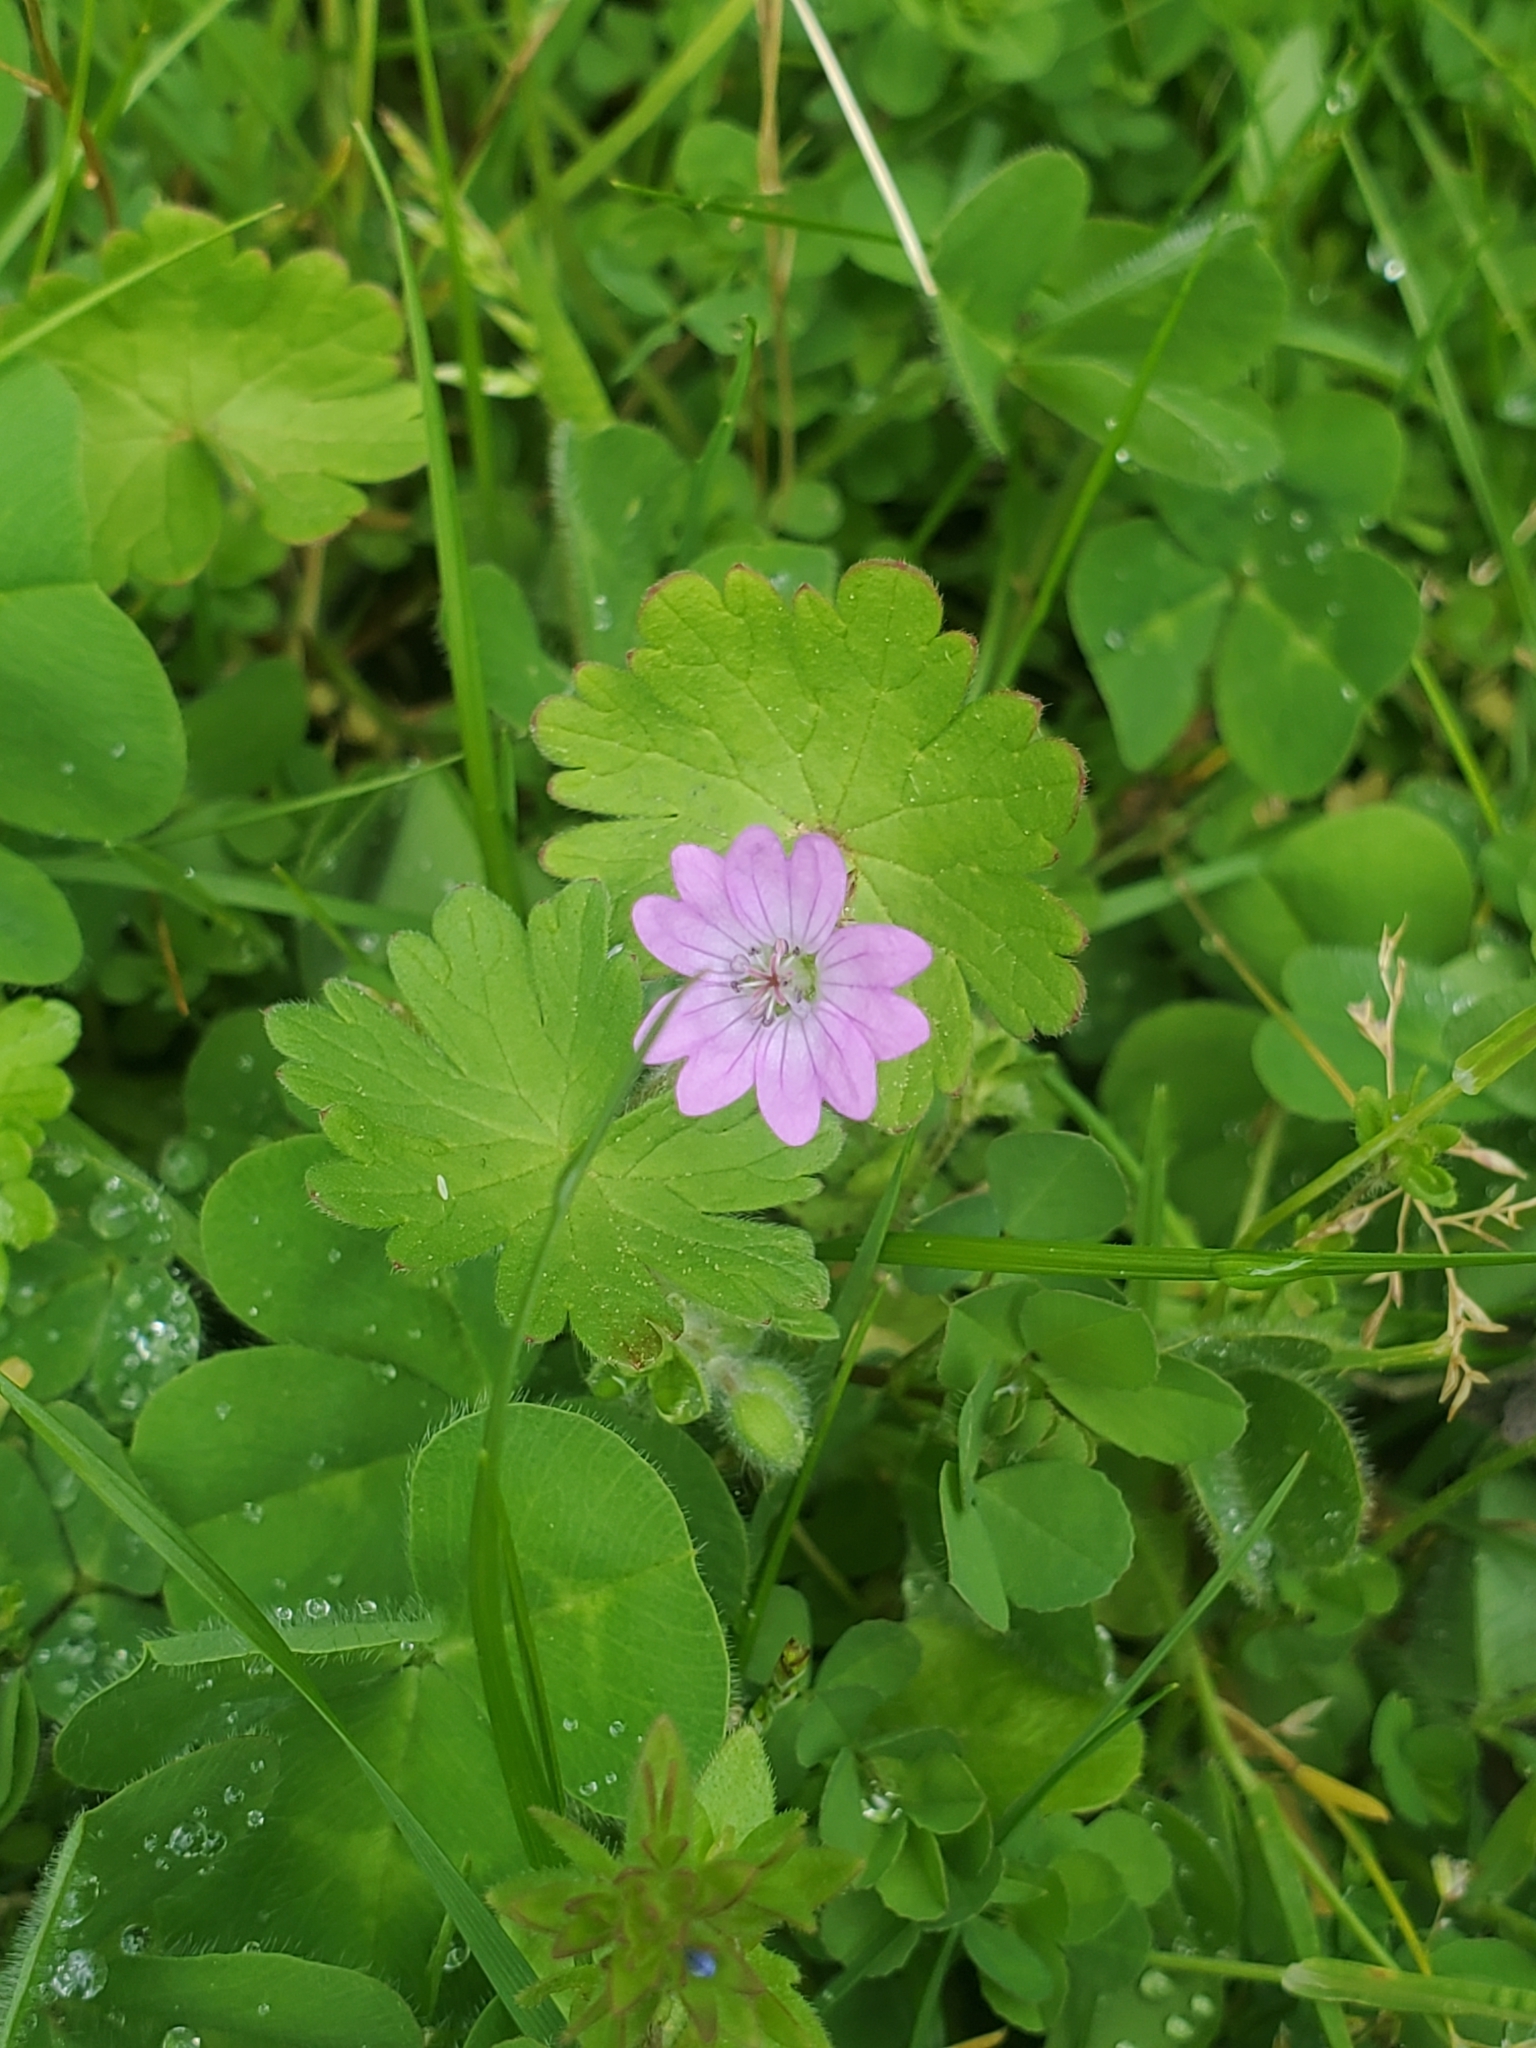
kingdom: Plantae
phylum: Tracheophyta
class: Magnoliopsida
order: Geraniales
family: Geraniaceae
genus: Geranium
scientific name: Geranium molle
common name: Dove's-foot crane's-bill
